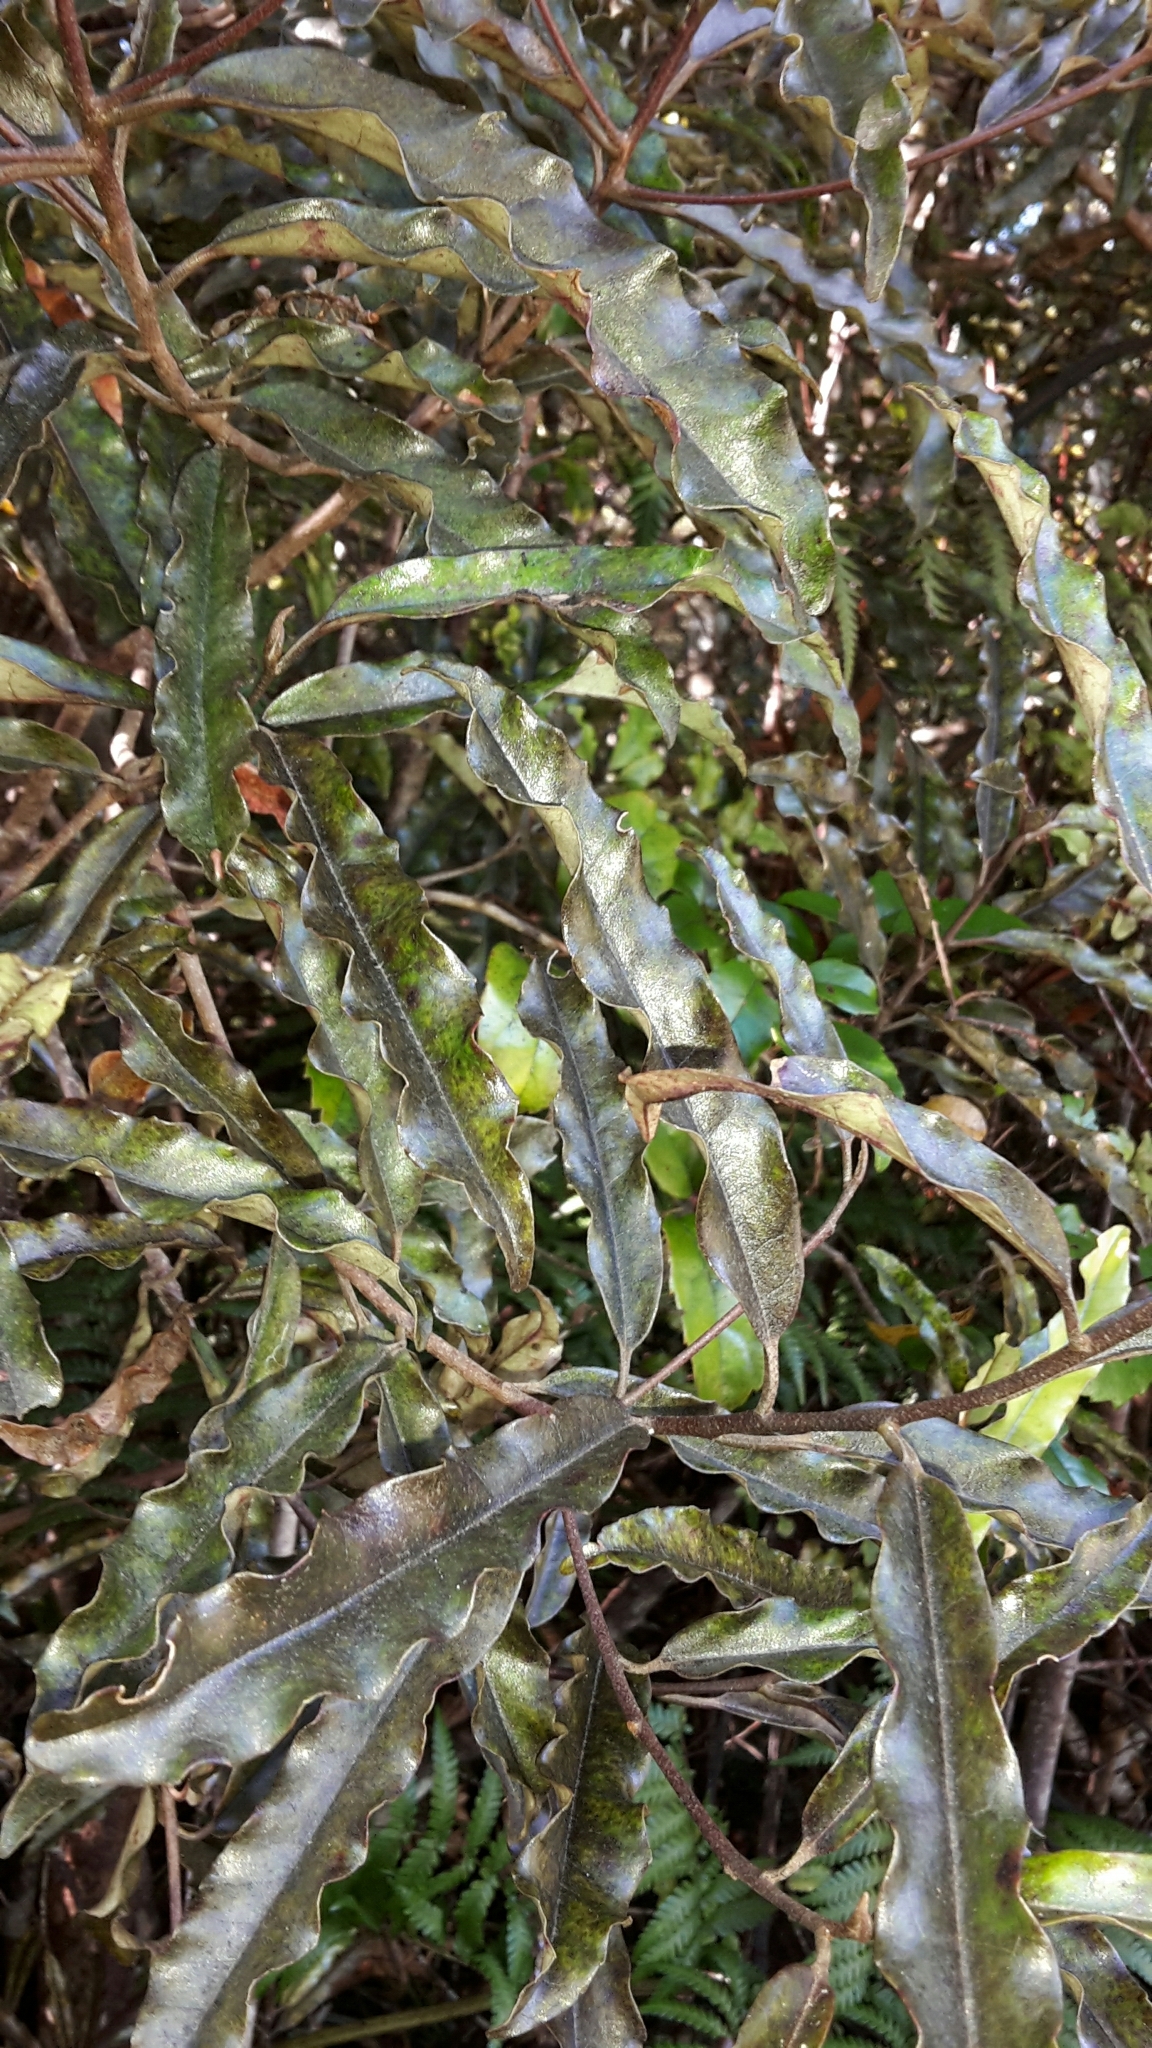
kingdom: Plantae
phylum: Tracheophyta
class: Magnoliopsida
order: Paracryphiales
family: Paracryphiaceae
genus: Quintinia
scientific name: Quintinia serrata
